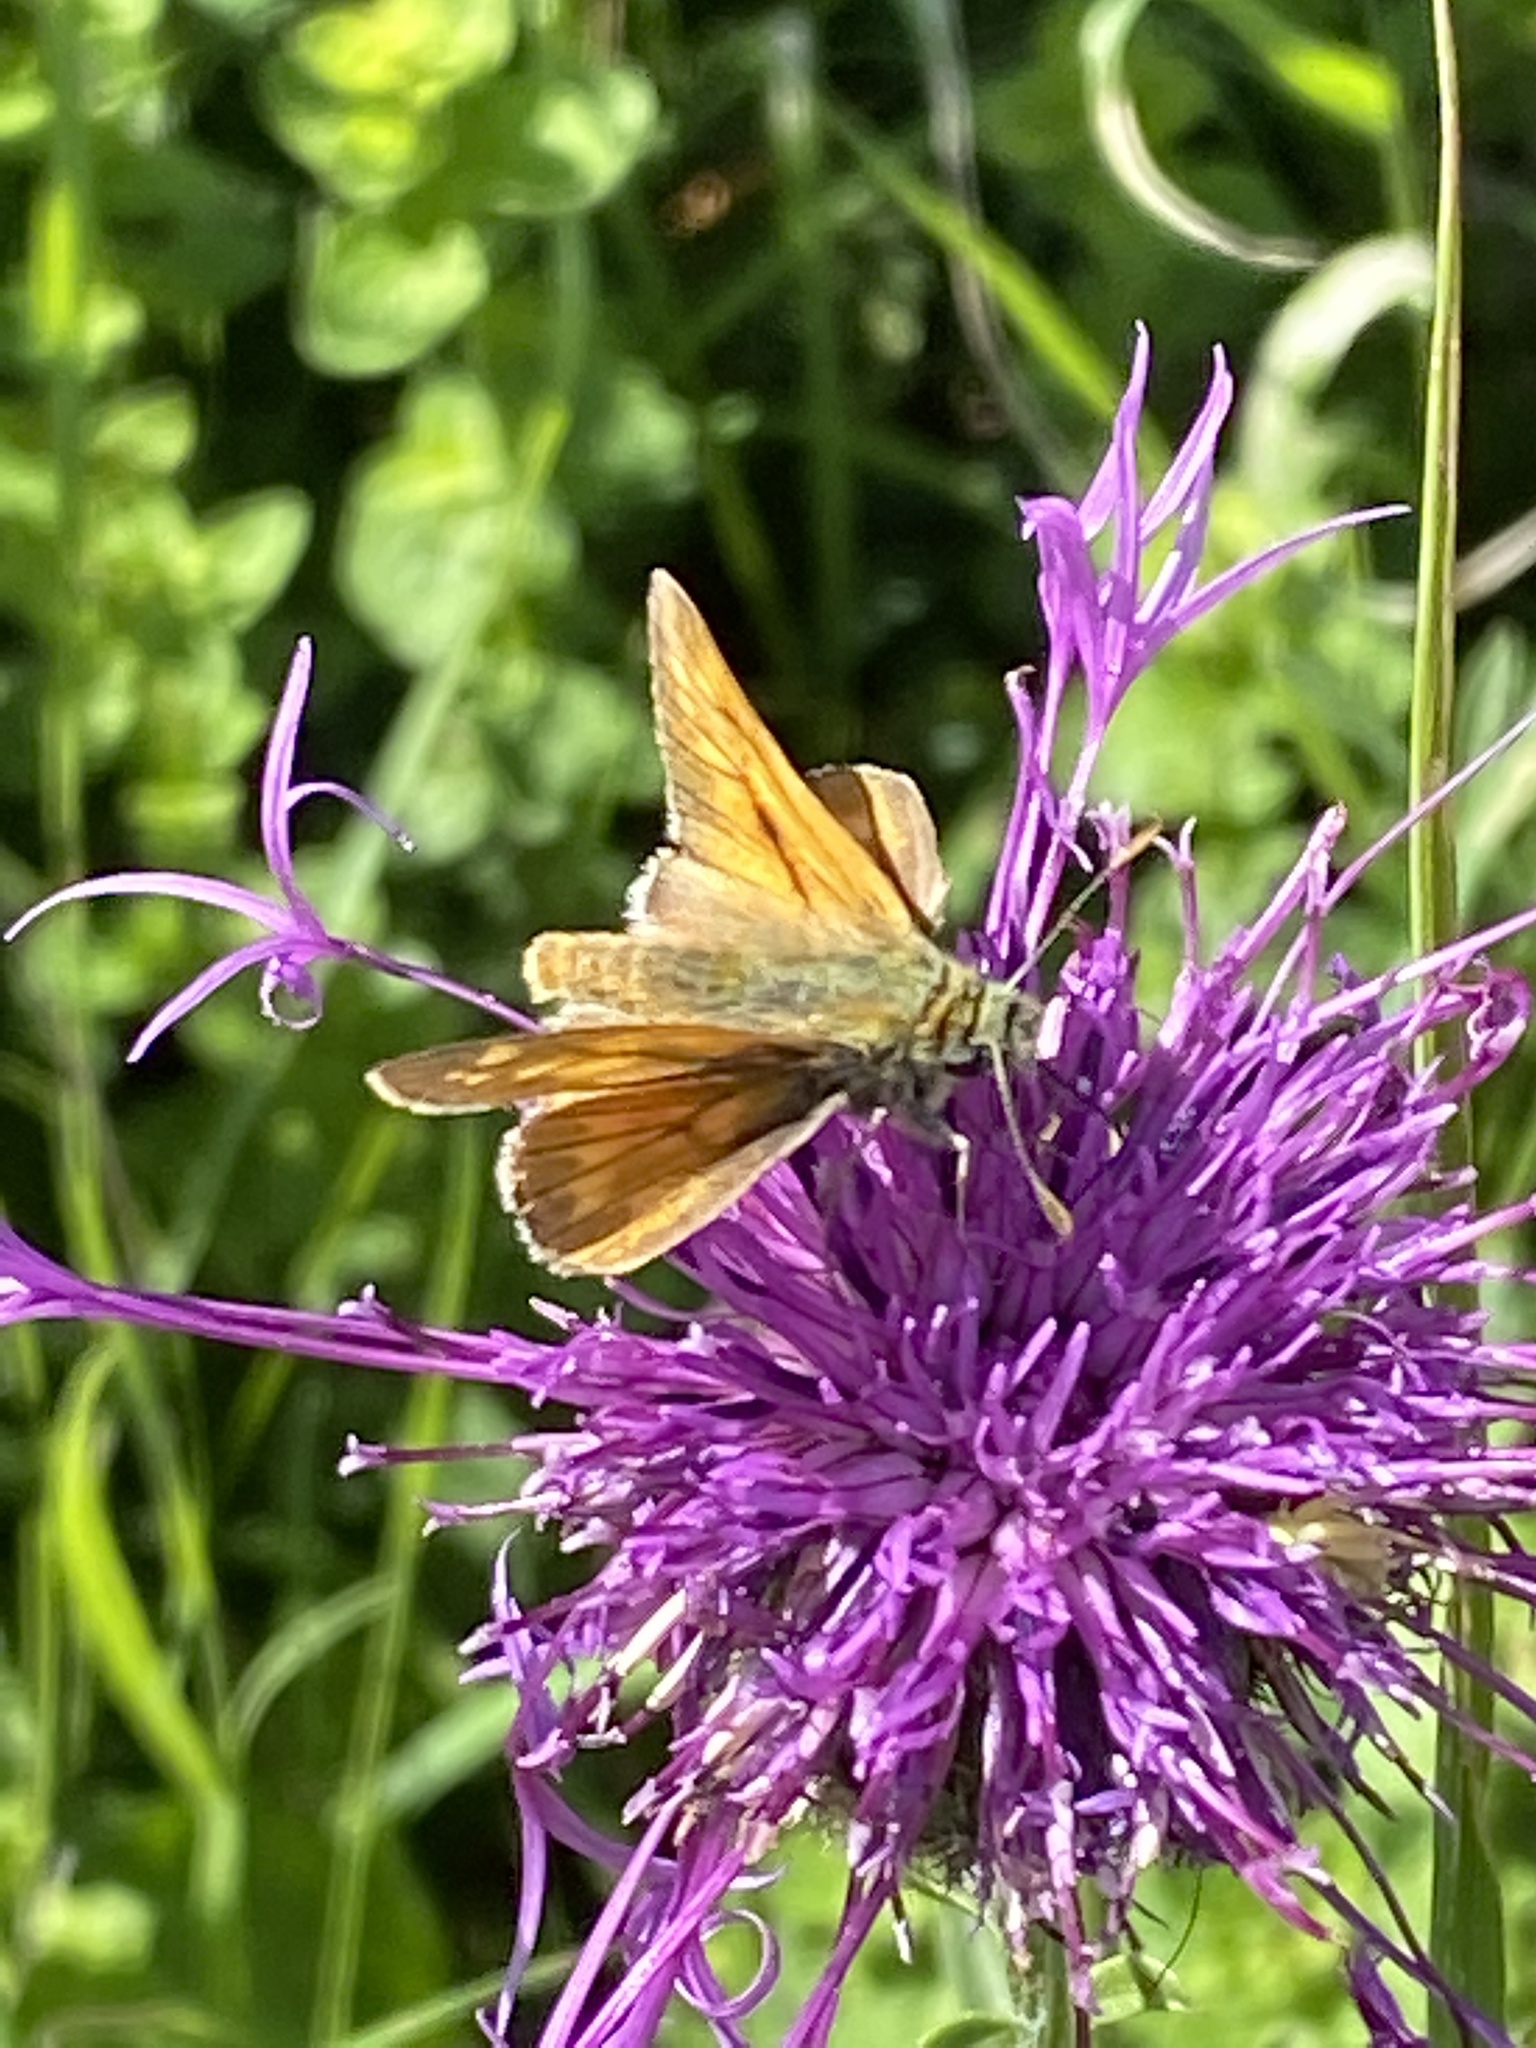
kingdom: Animalia
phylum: Arthropoda
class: Insecta
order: Lepidoptera
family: Hesperiidae
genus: Ochlodes
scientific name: Ochlodes venata
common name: Large skipper
